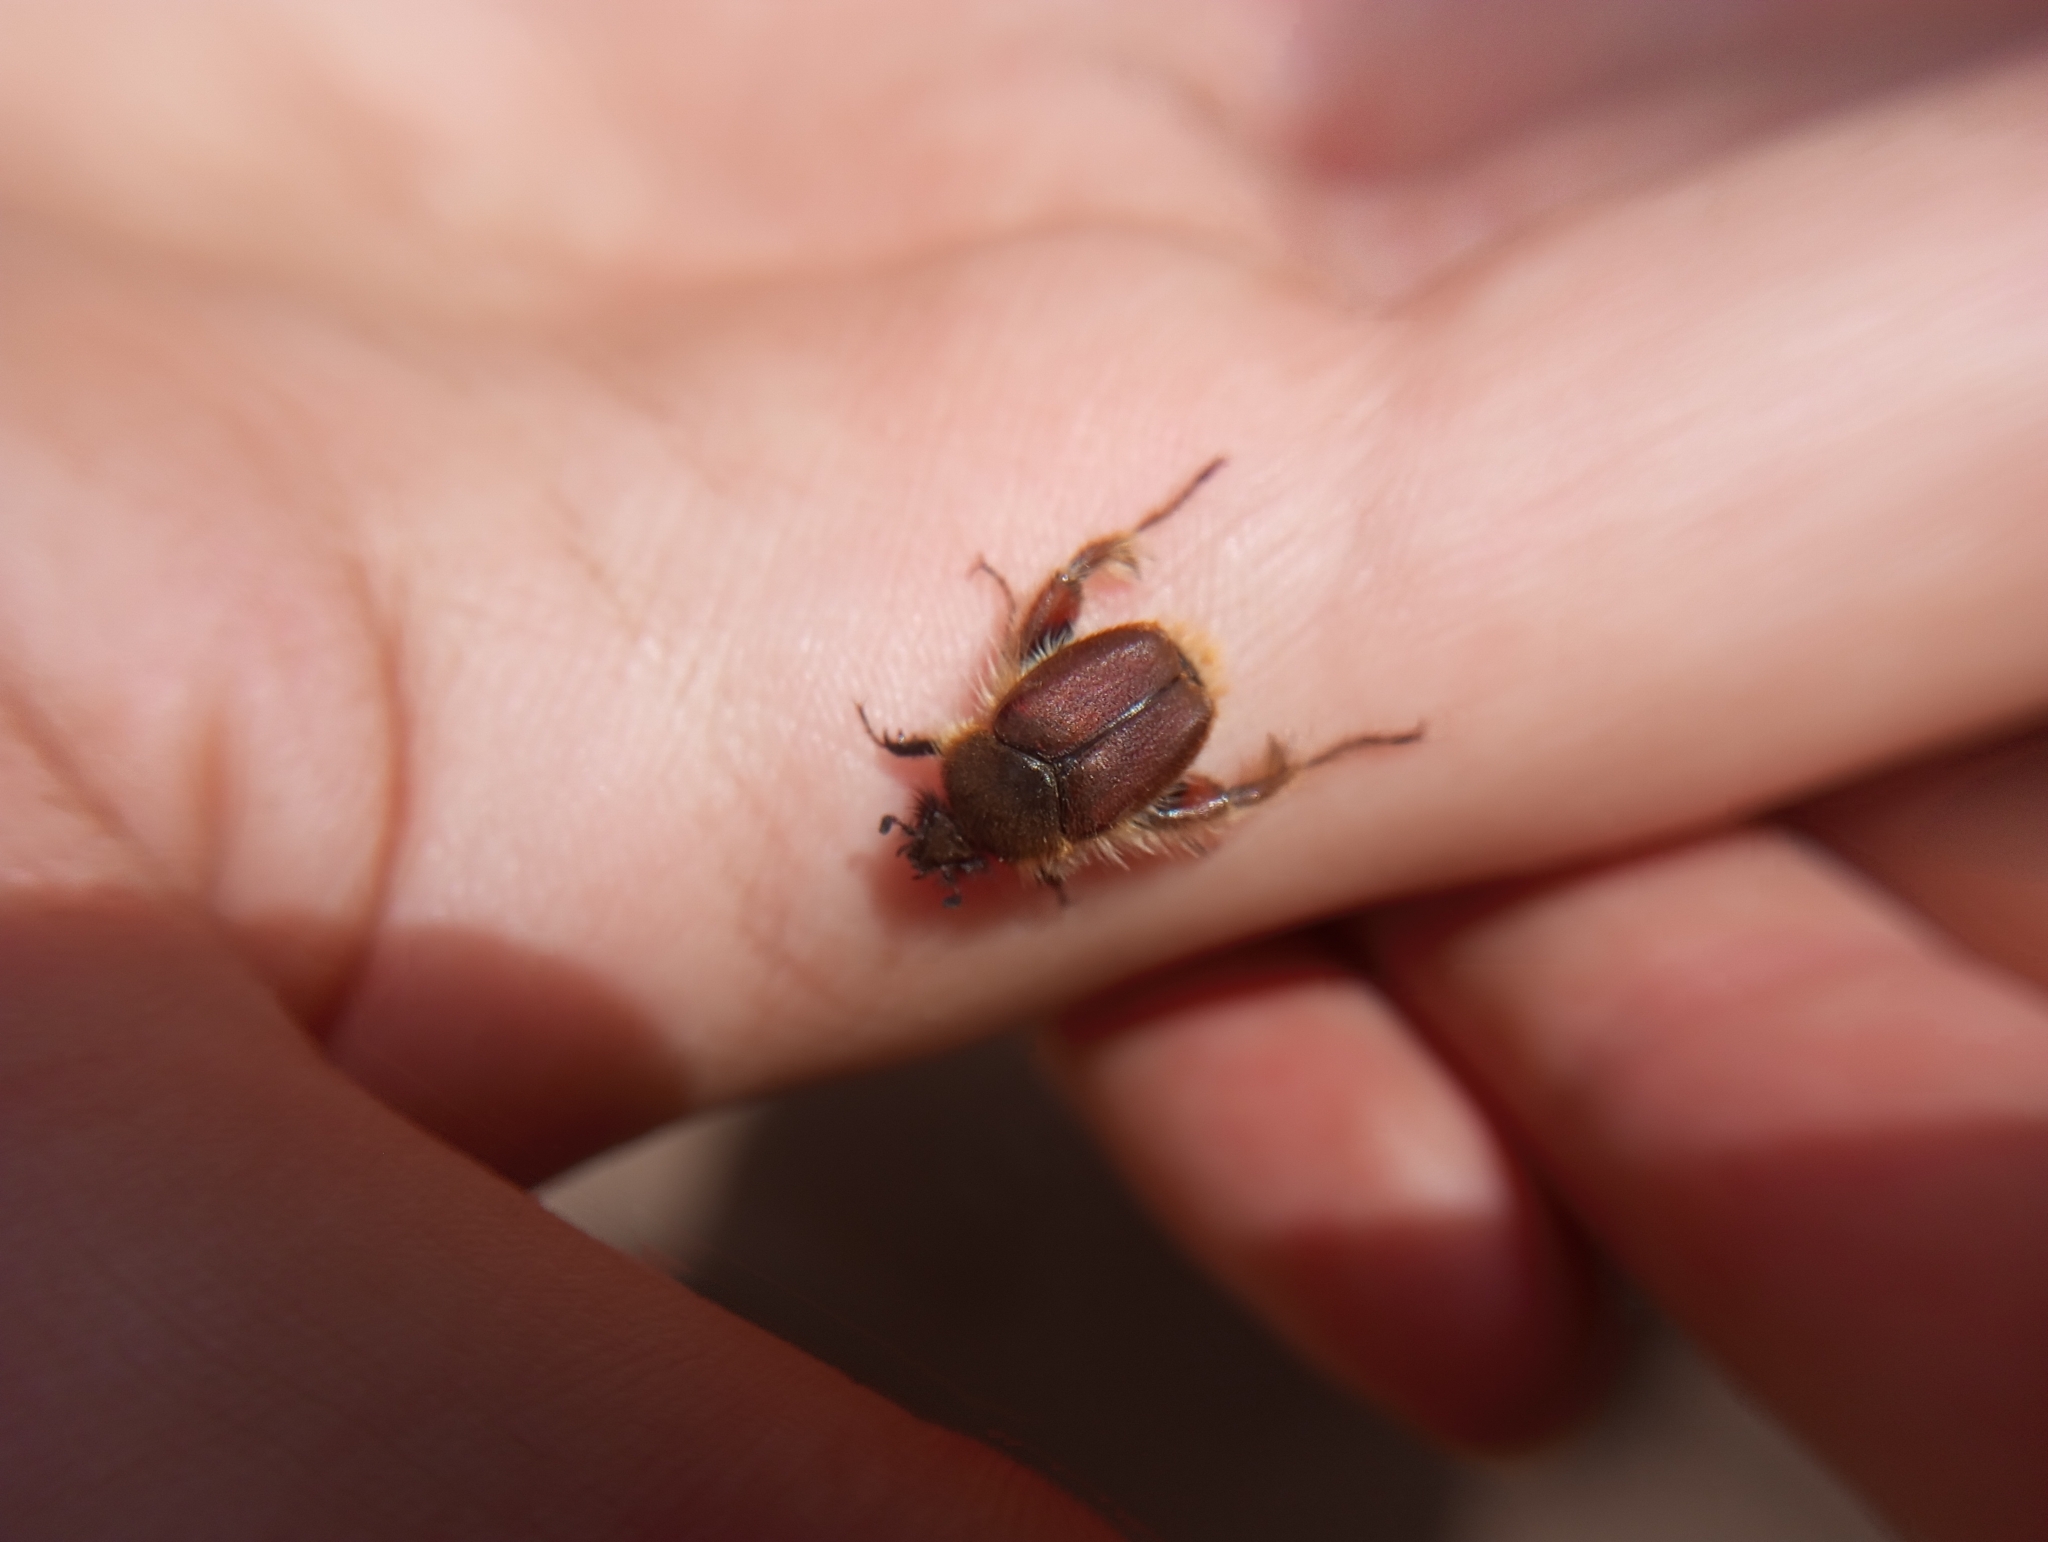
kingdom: Animalia
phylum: Arthropoda
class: Insecta
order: Coleoptera
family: Scarabaeidae
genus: Arctodium
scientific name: Arctodium vulpinum
